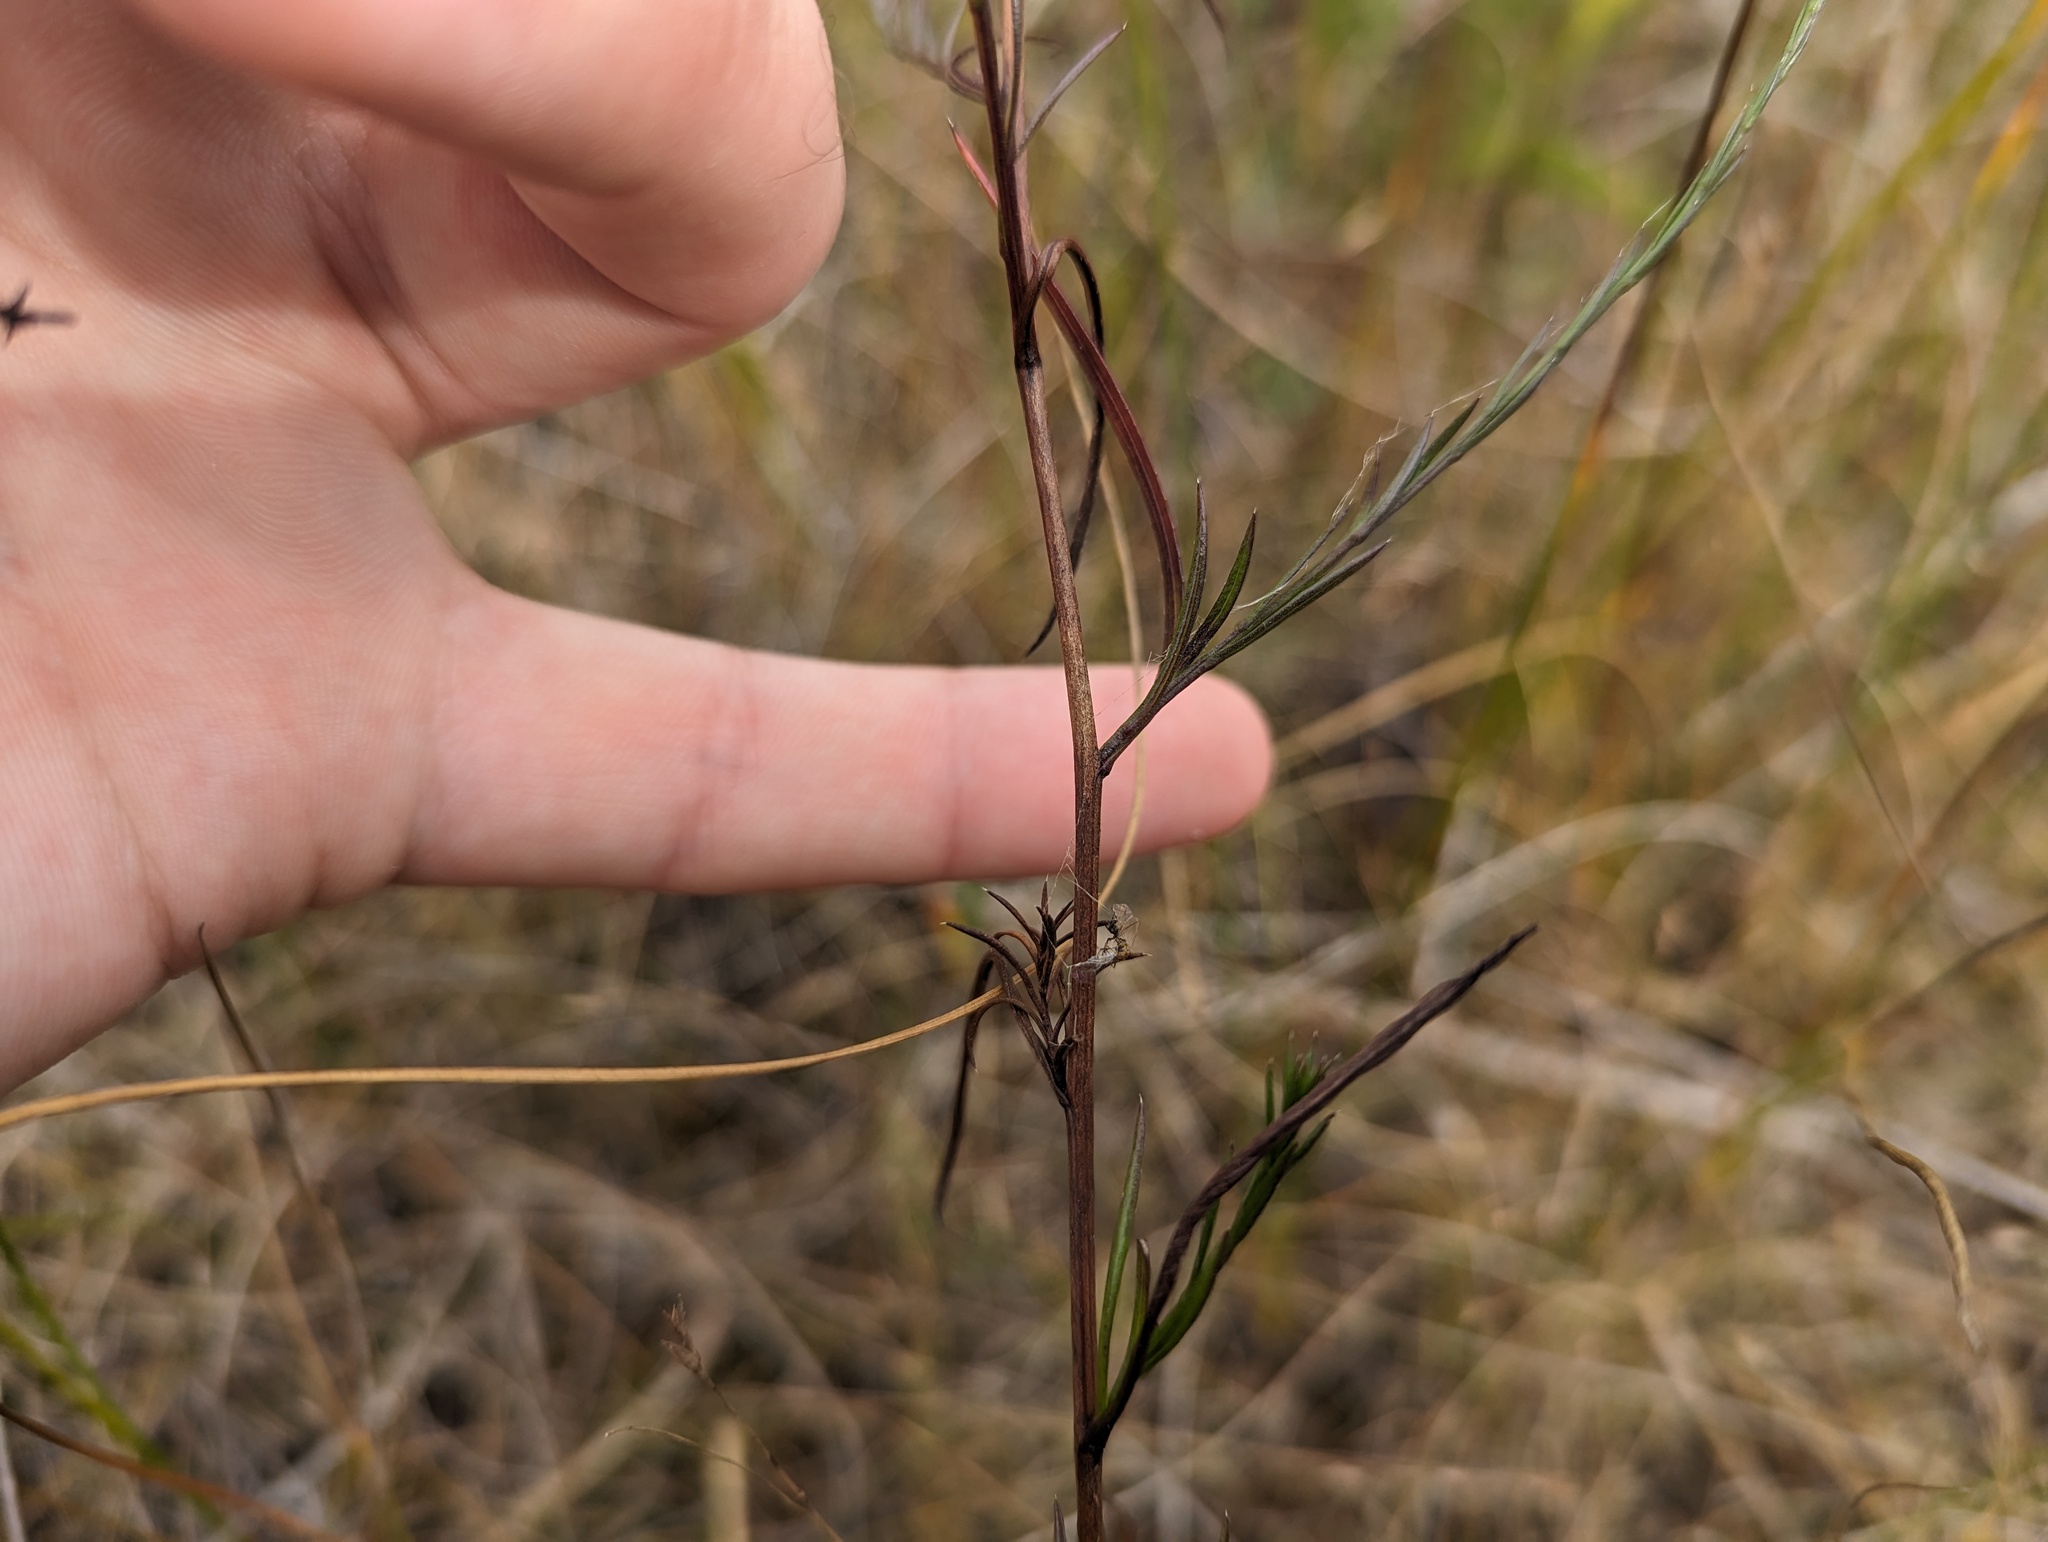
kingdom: Plantae
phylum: Tracheophyta
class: Magnoliopsida
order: Asterales
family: Asteraceae
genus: Symphyotrichum
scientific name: Symphyotrichum pilosum
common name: Awl aster
